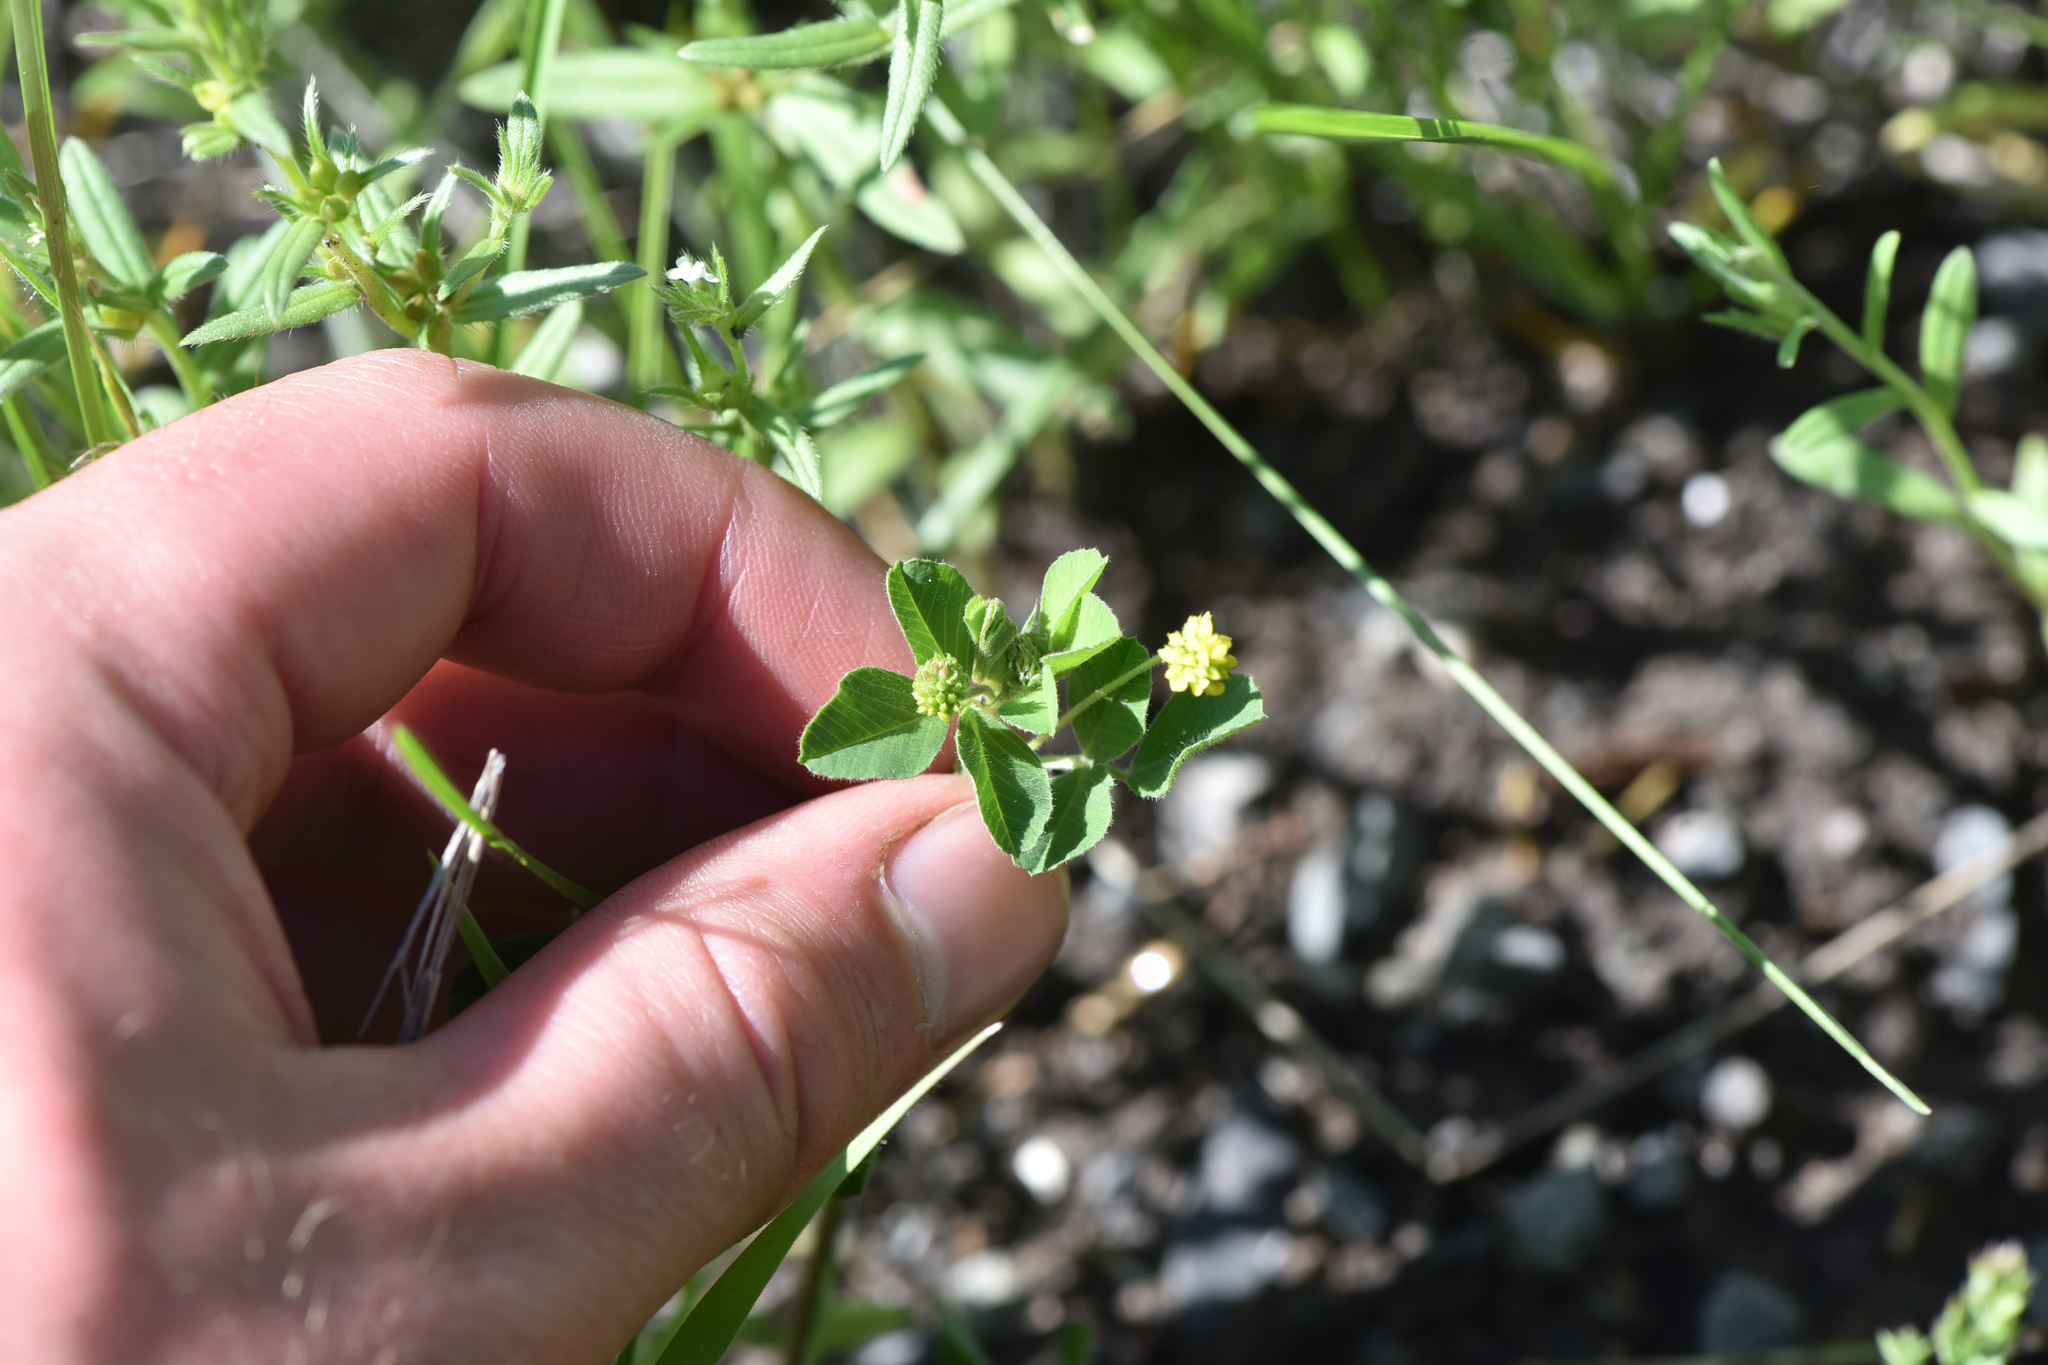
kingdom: Plantae
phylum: Tracheophyta
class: Magnoliopsida
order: Fabales
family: Fabaceae
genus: Medicago
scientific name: Medicago lupulina
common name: Black medick
